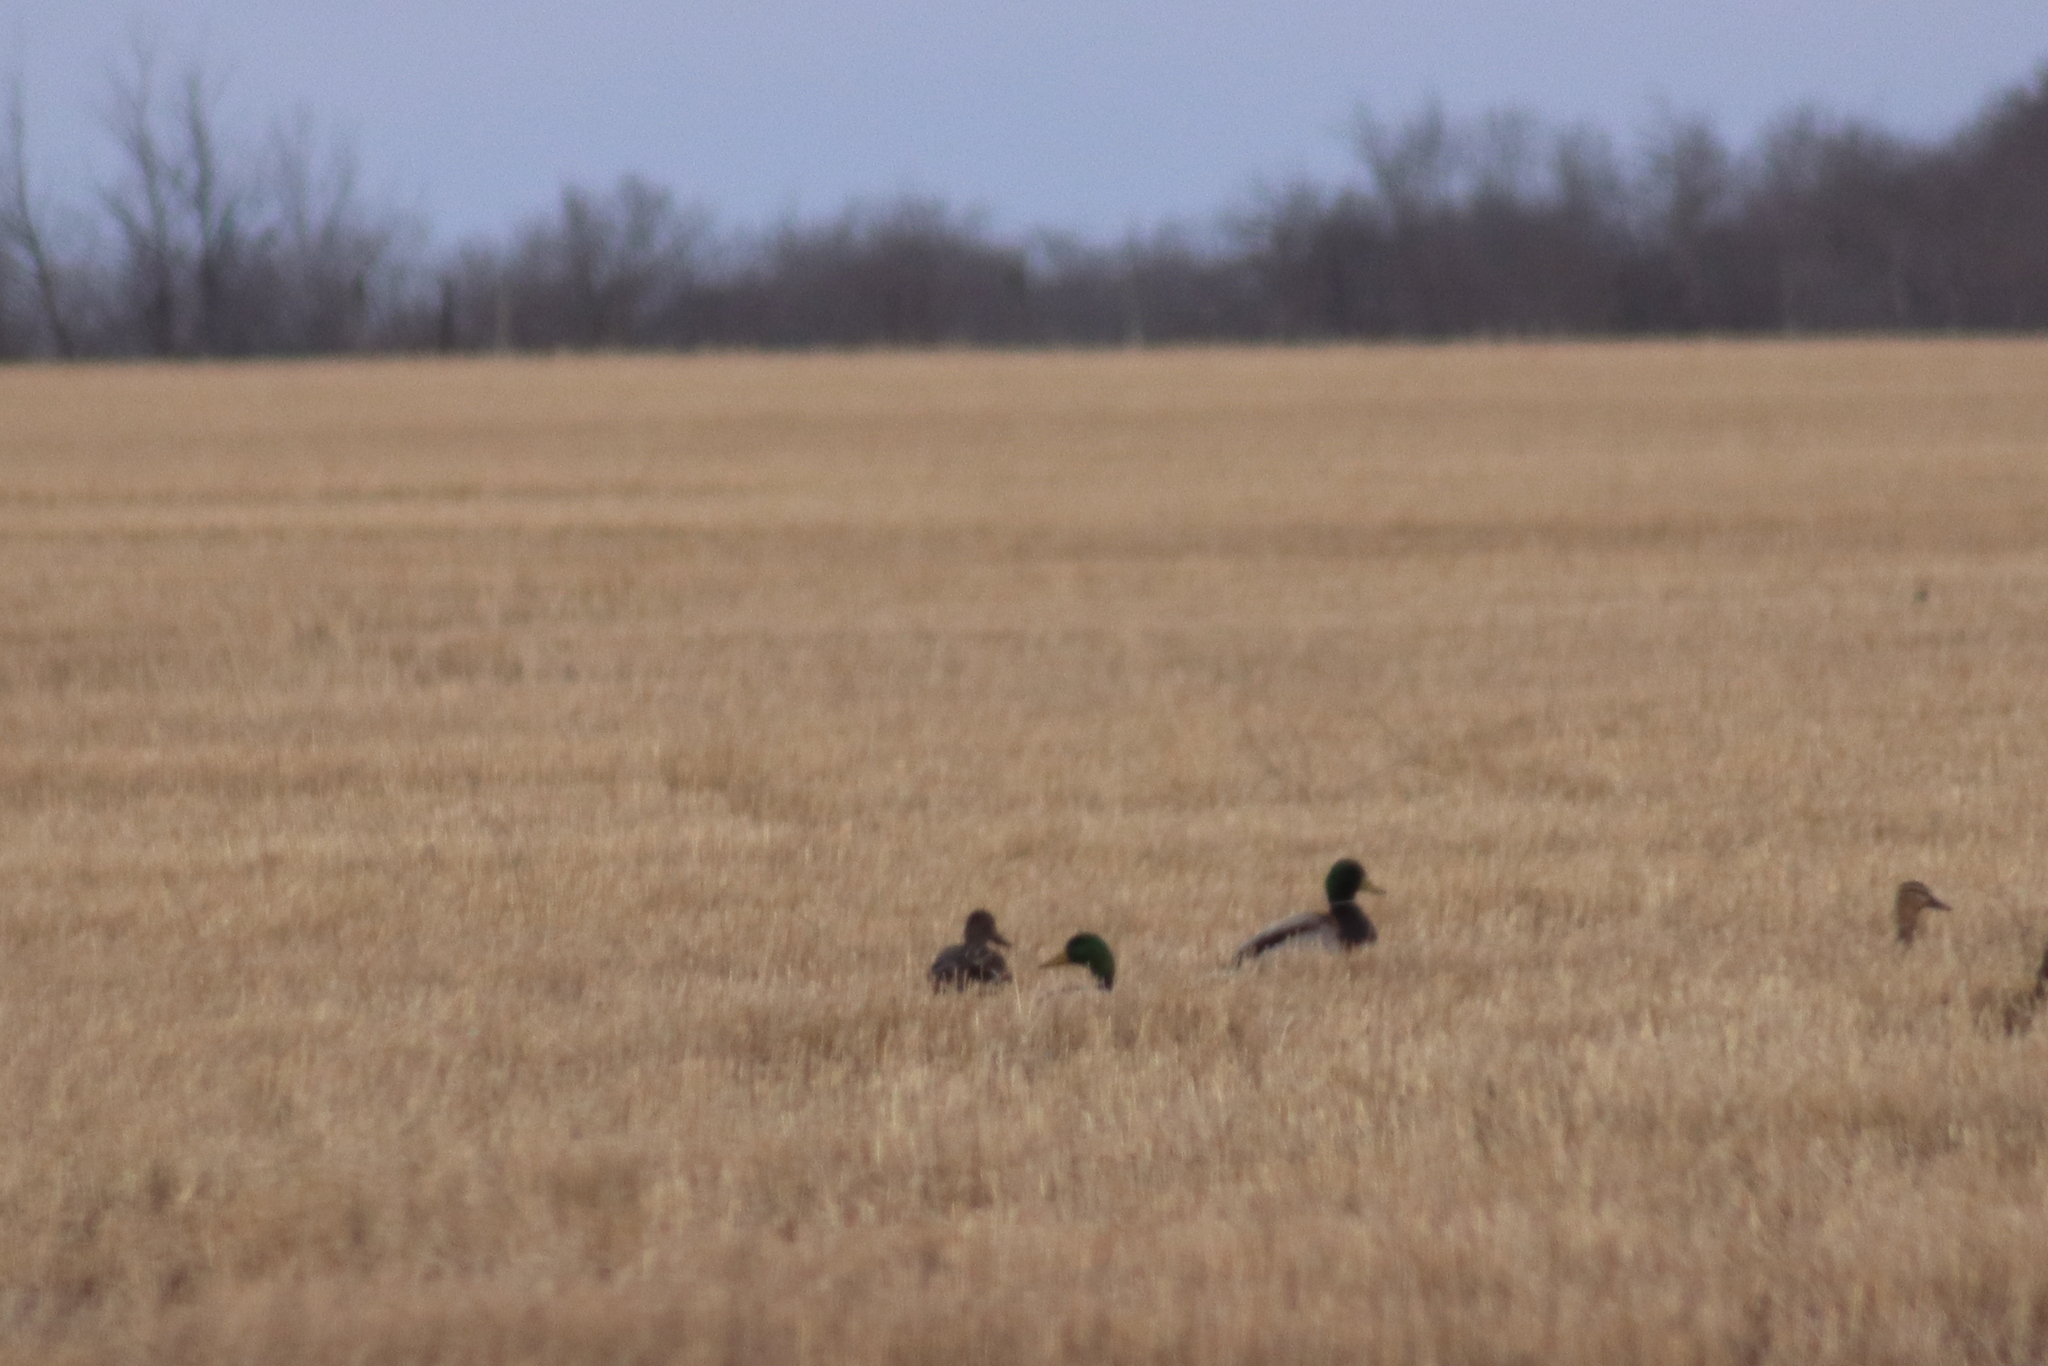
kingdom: Animalia
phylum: Chordata
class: Aves
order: Anseriformes
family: Anatidae
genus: Anas
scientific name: Anas platyrhynchos
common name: Mallard
